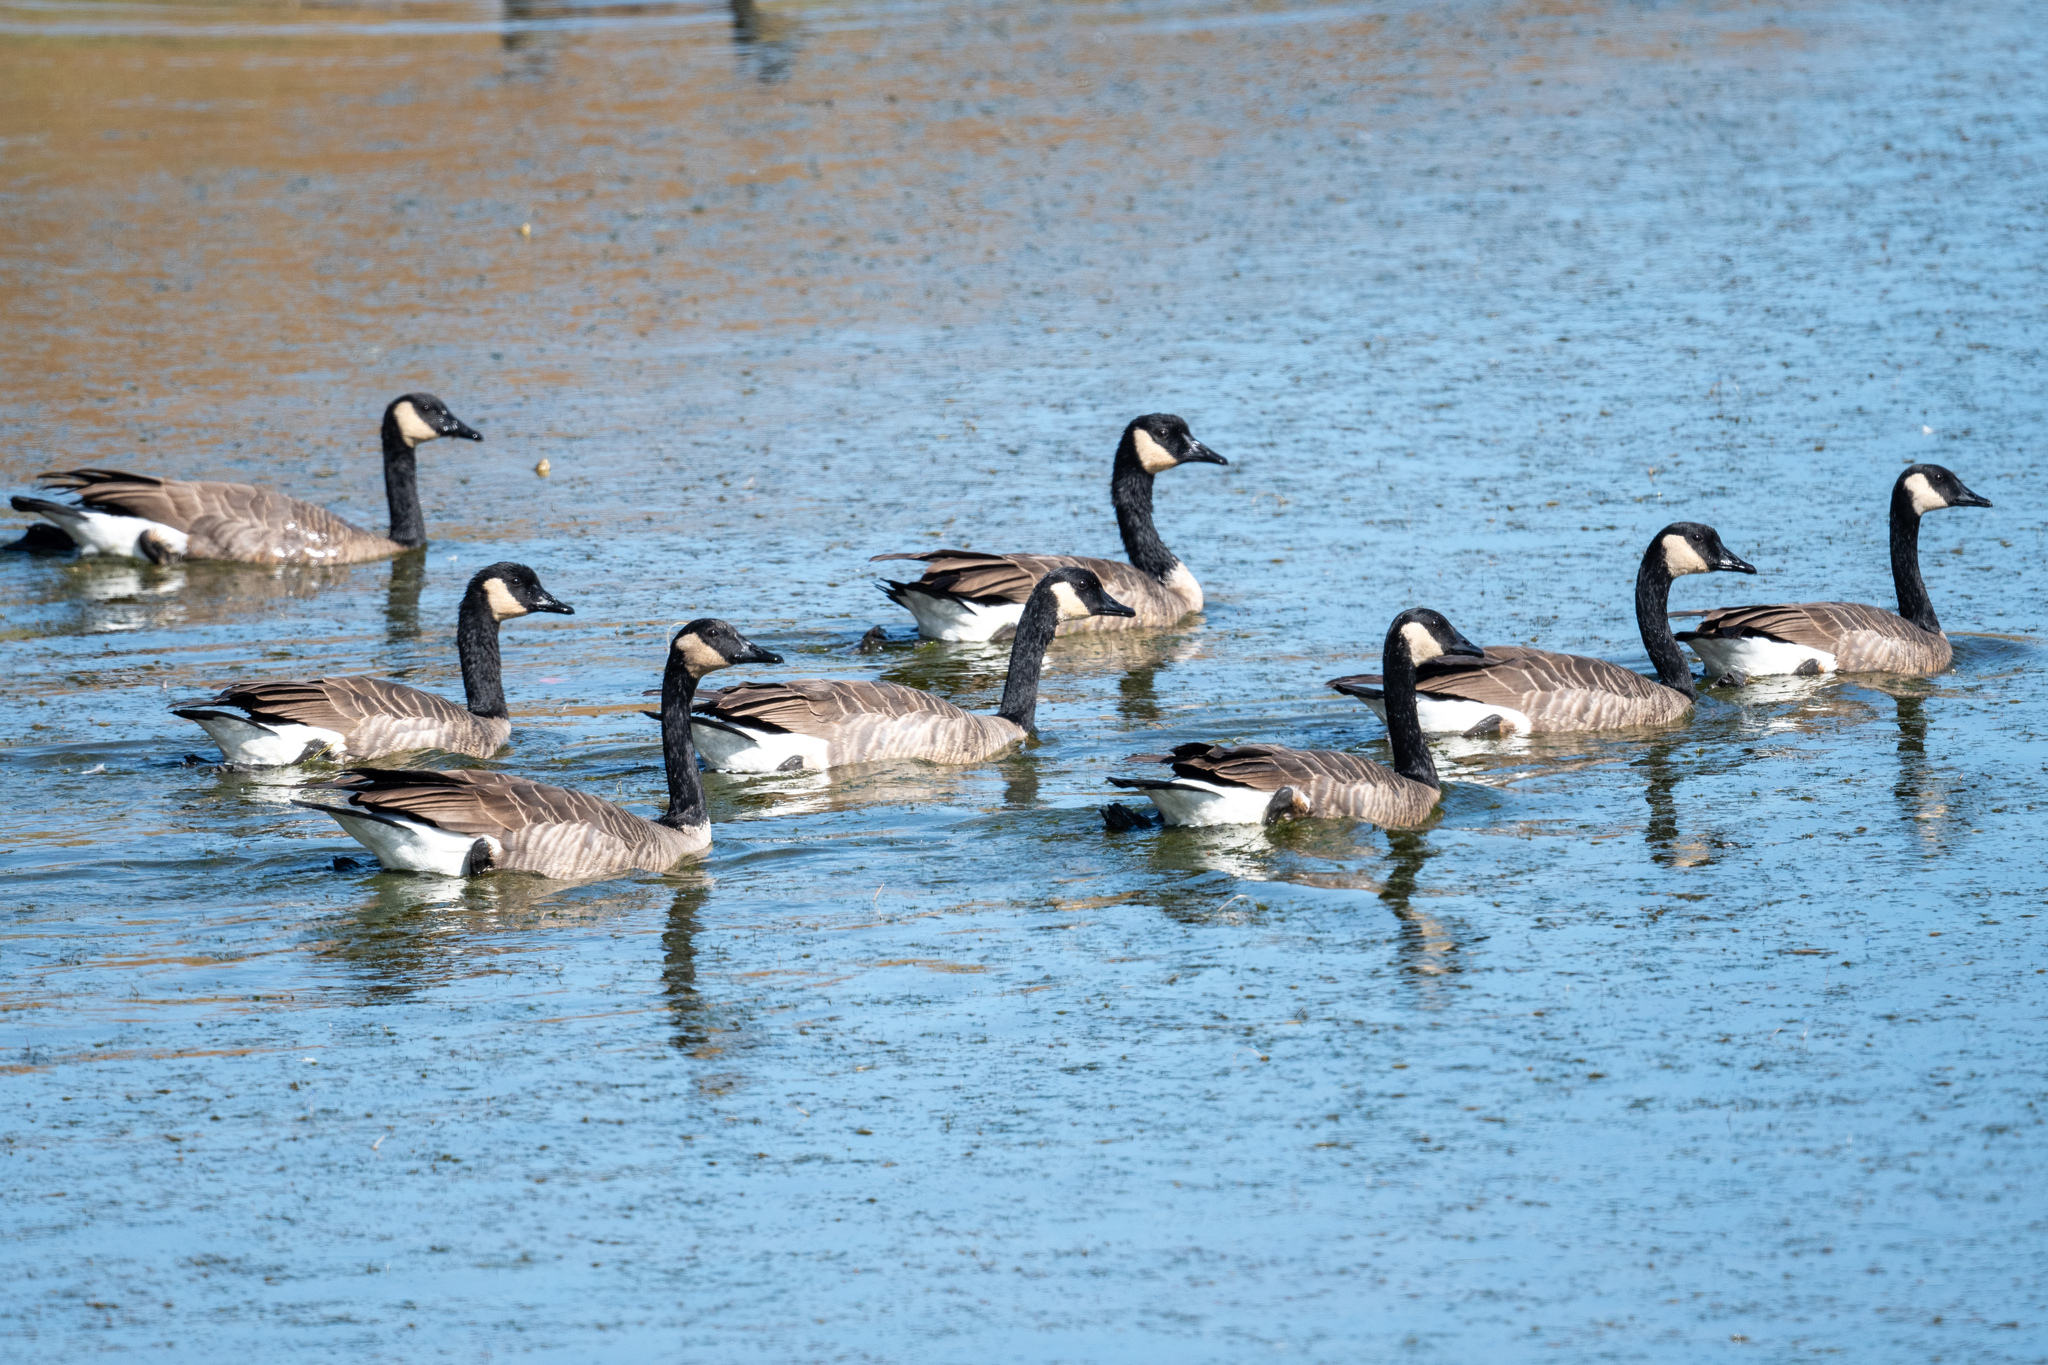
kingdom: Animalia
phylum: Chordata
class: Aves
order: Anseriformes
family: Anatidae
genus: Branta
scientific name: Branta canadensis
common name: Canada goose
